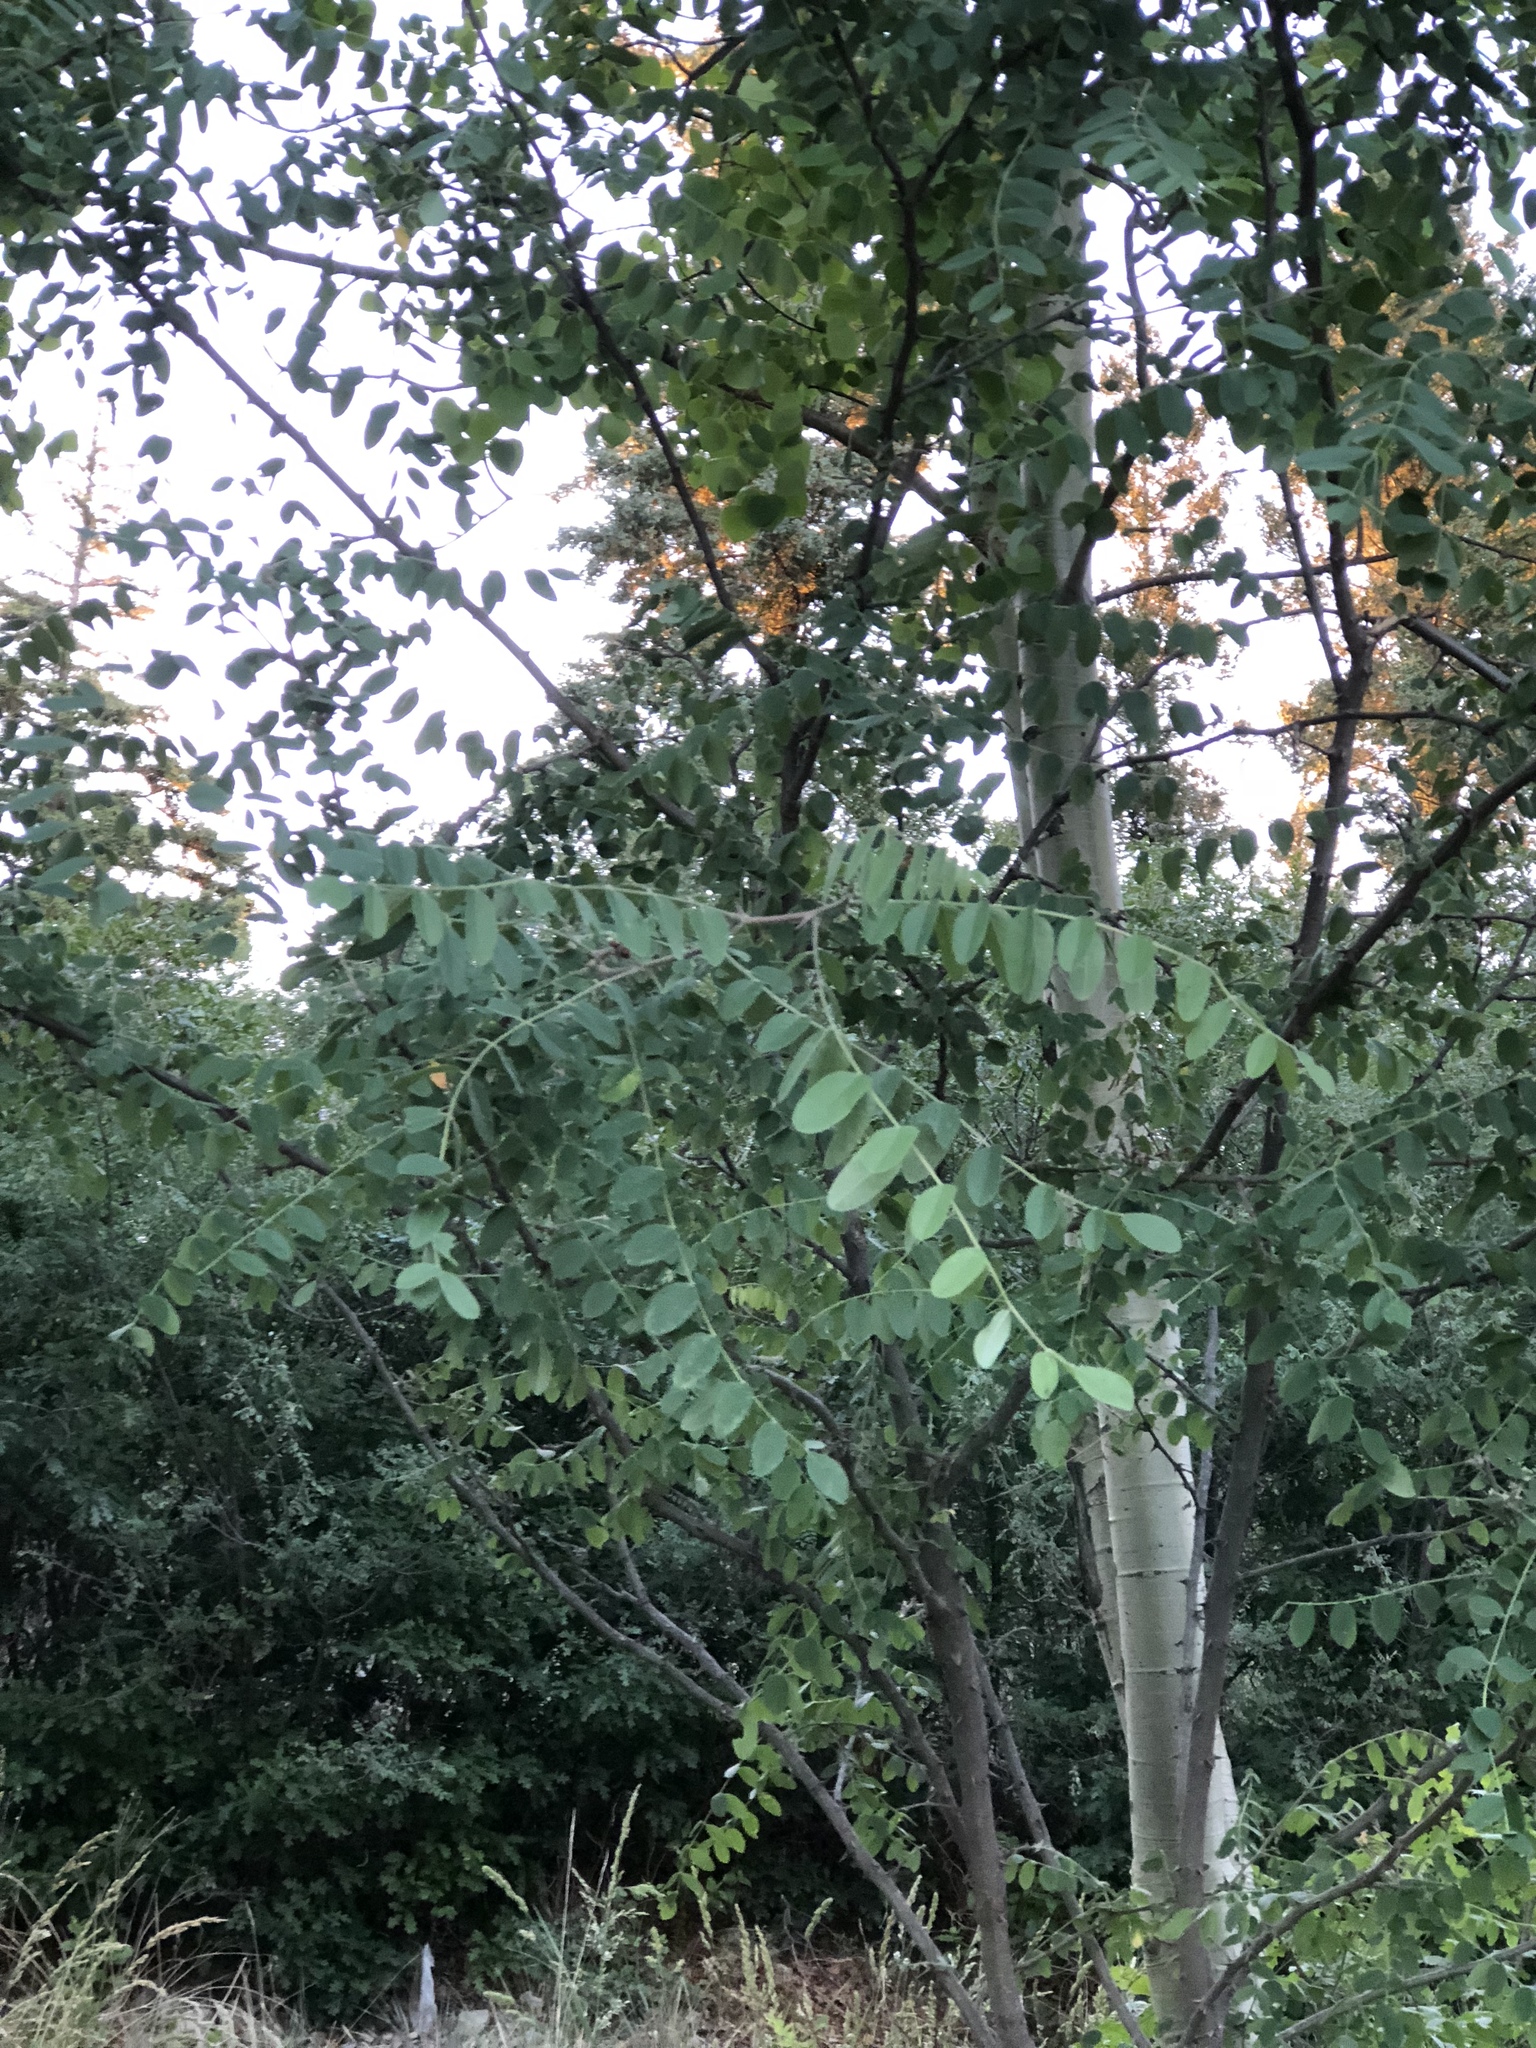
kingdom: Plantae
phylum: Tracheophyta
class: Magnoliopsida
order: Fabales
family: Fabaceae
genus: Robinia
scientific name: Robinia neomexicana
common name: New mexico locust
